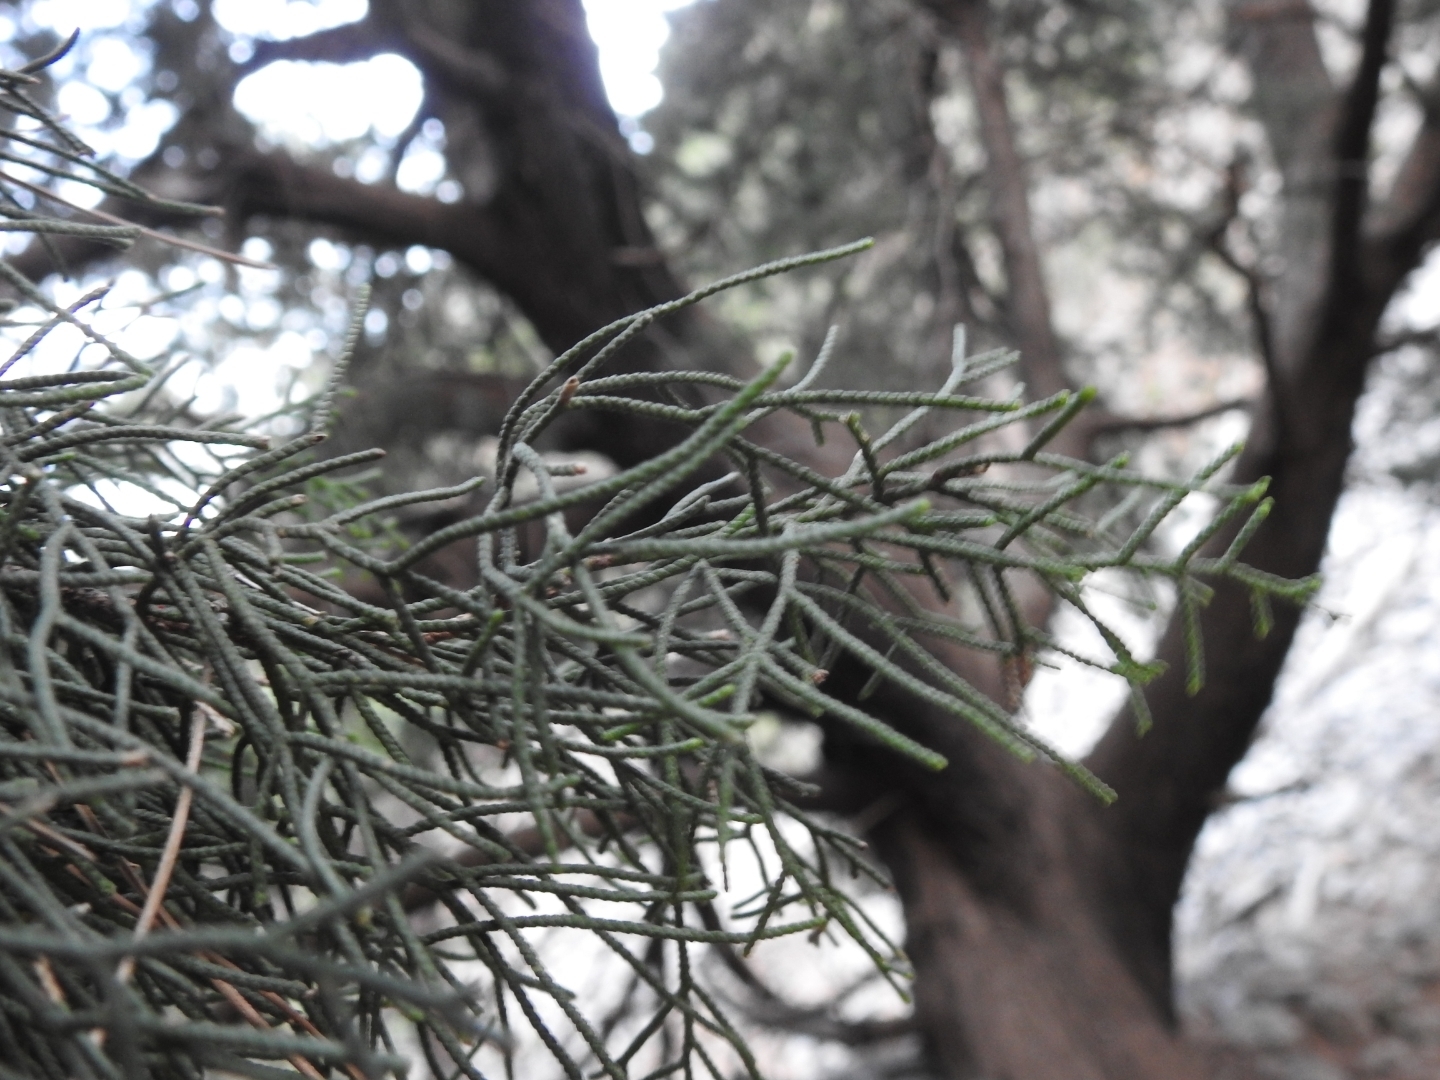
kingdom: Plantae
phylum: Tracheophyta
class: Pinopsida
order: Pinales
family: Cupressaceae
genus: Cupressus
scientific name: Cupressus sempervirens
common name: Italian cypress
